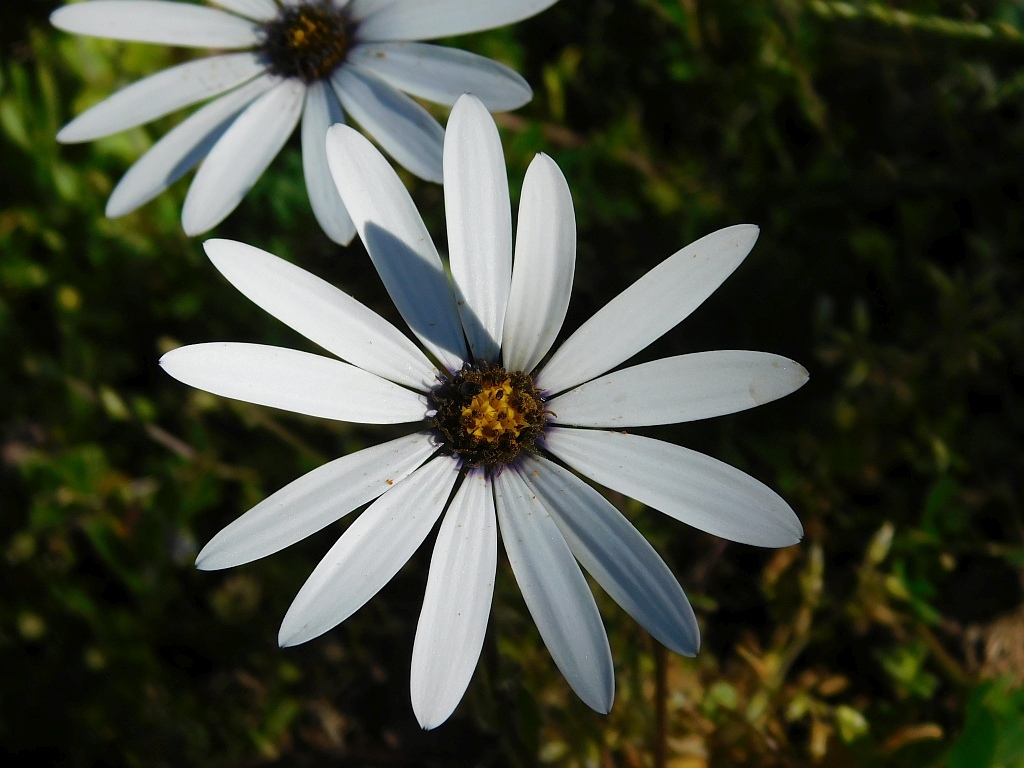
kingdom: Plantae
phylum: Tracheophyta
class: Magnoliopsida
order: Asterales
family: Asteraceae
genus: Dimorphotheca
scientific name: Dimorphotheca pluvialis
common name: Weather prophet
